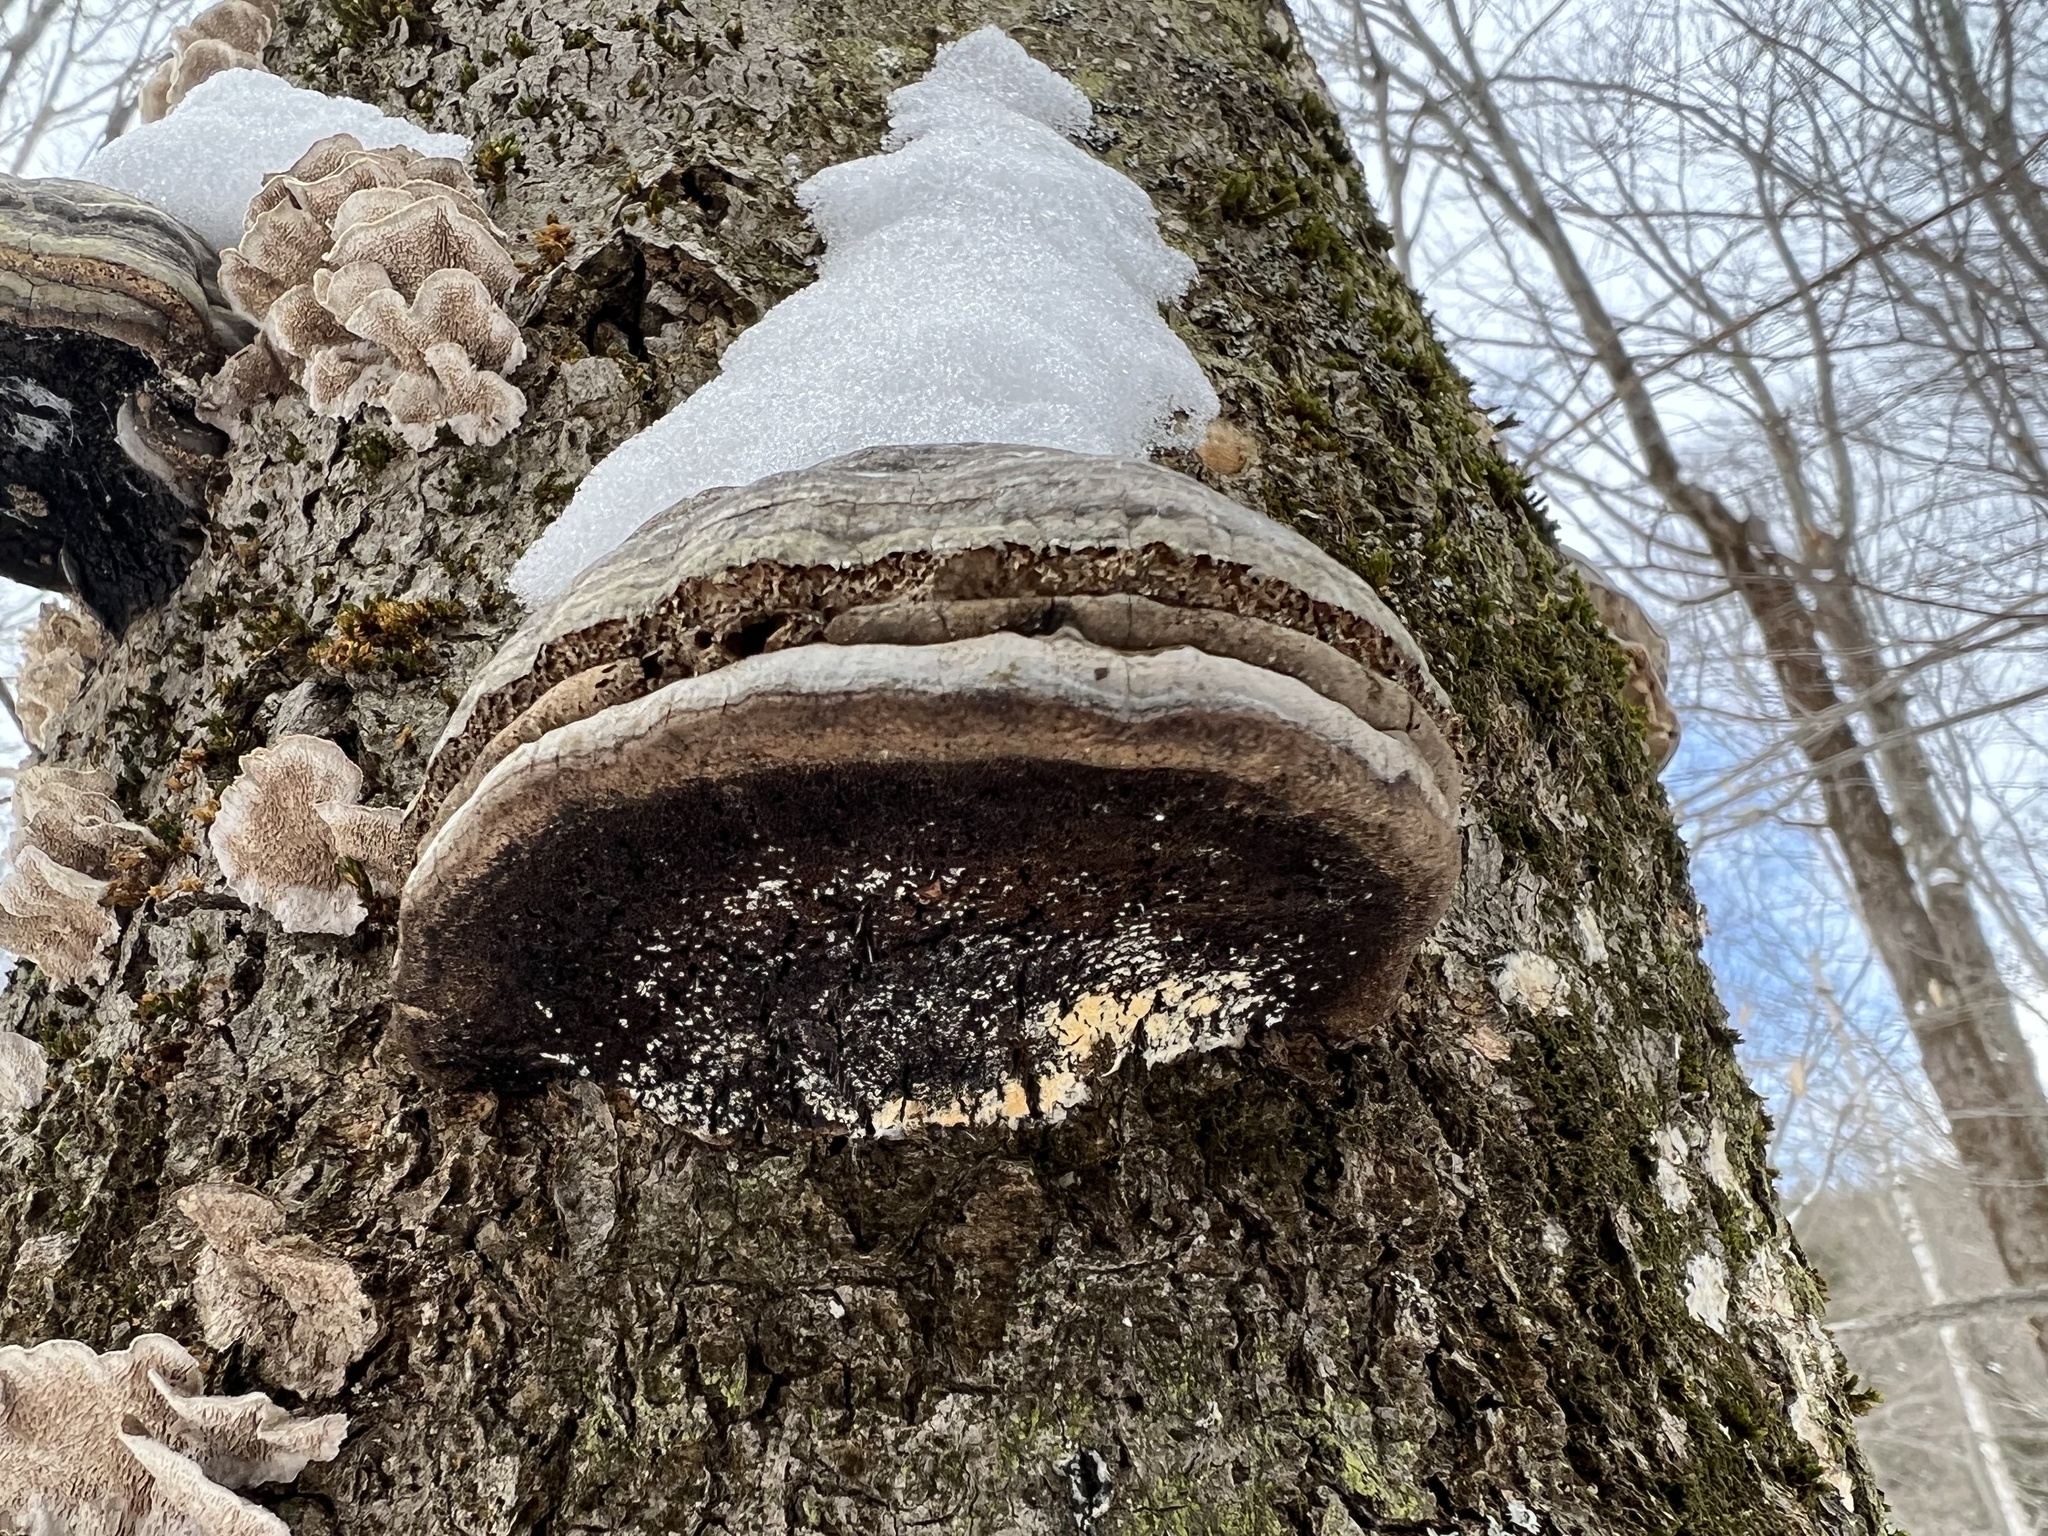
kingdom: Fungi
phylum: Basidiomycota
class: Agaricomycetes
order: Polyporales
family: Polyporaceae
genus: Fomes
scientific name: Fomes fomentarius
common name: Hoof fungus
